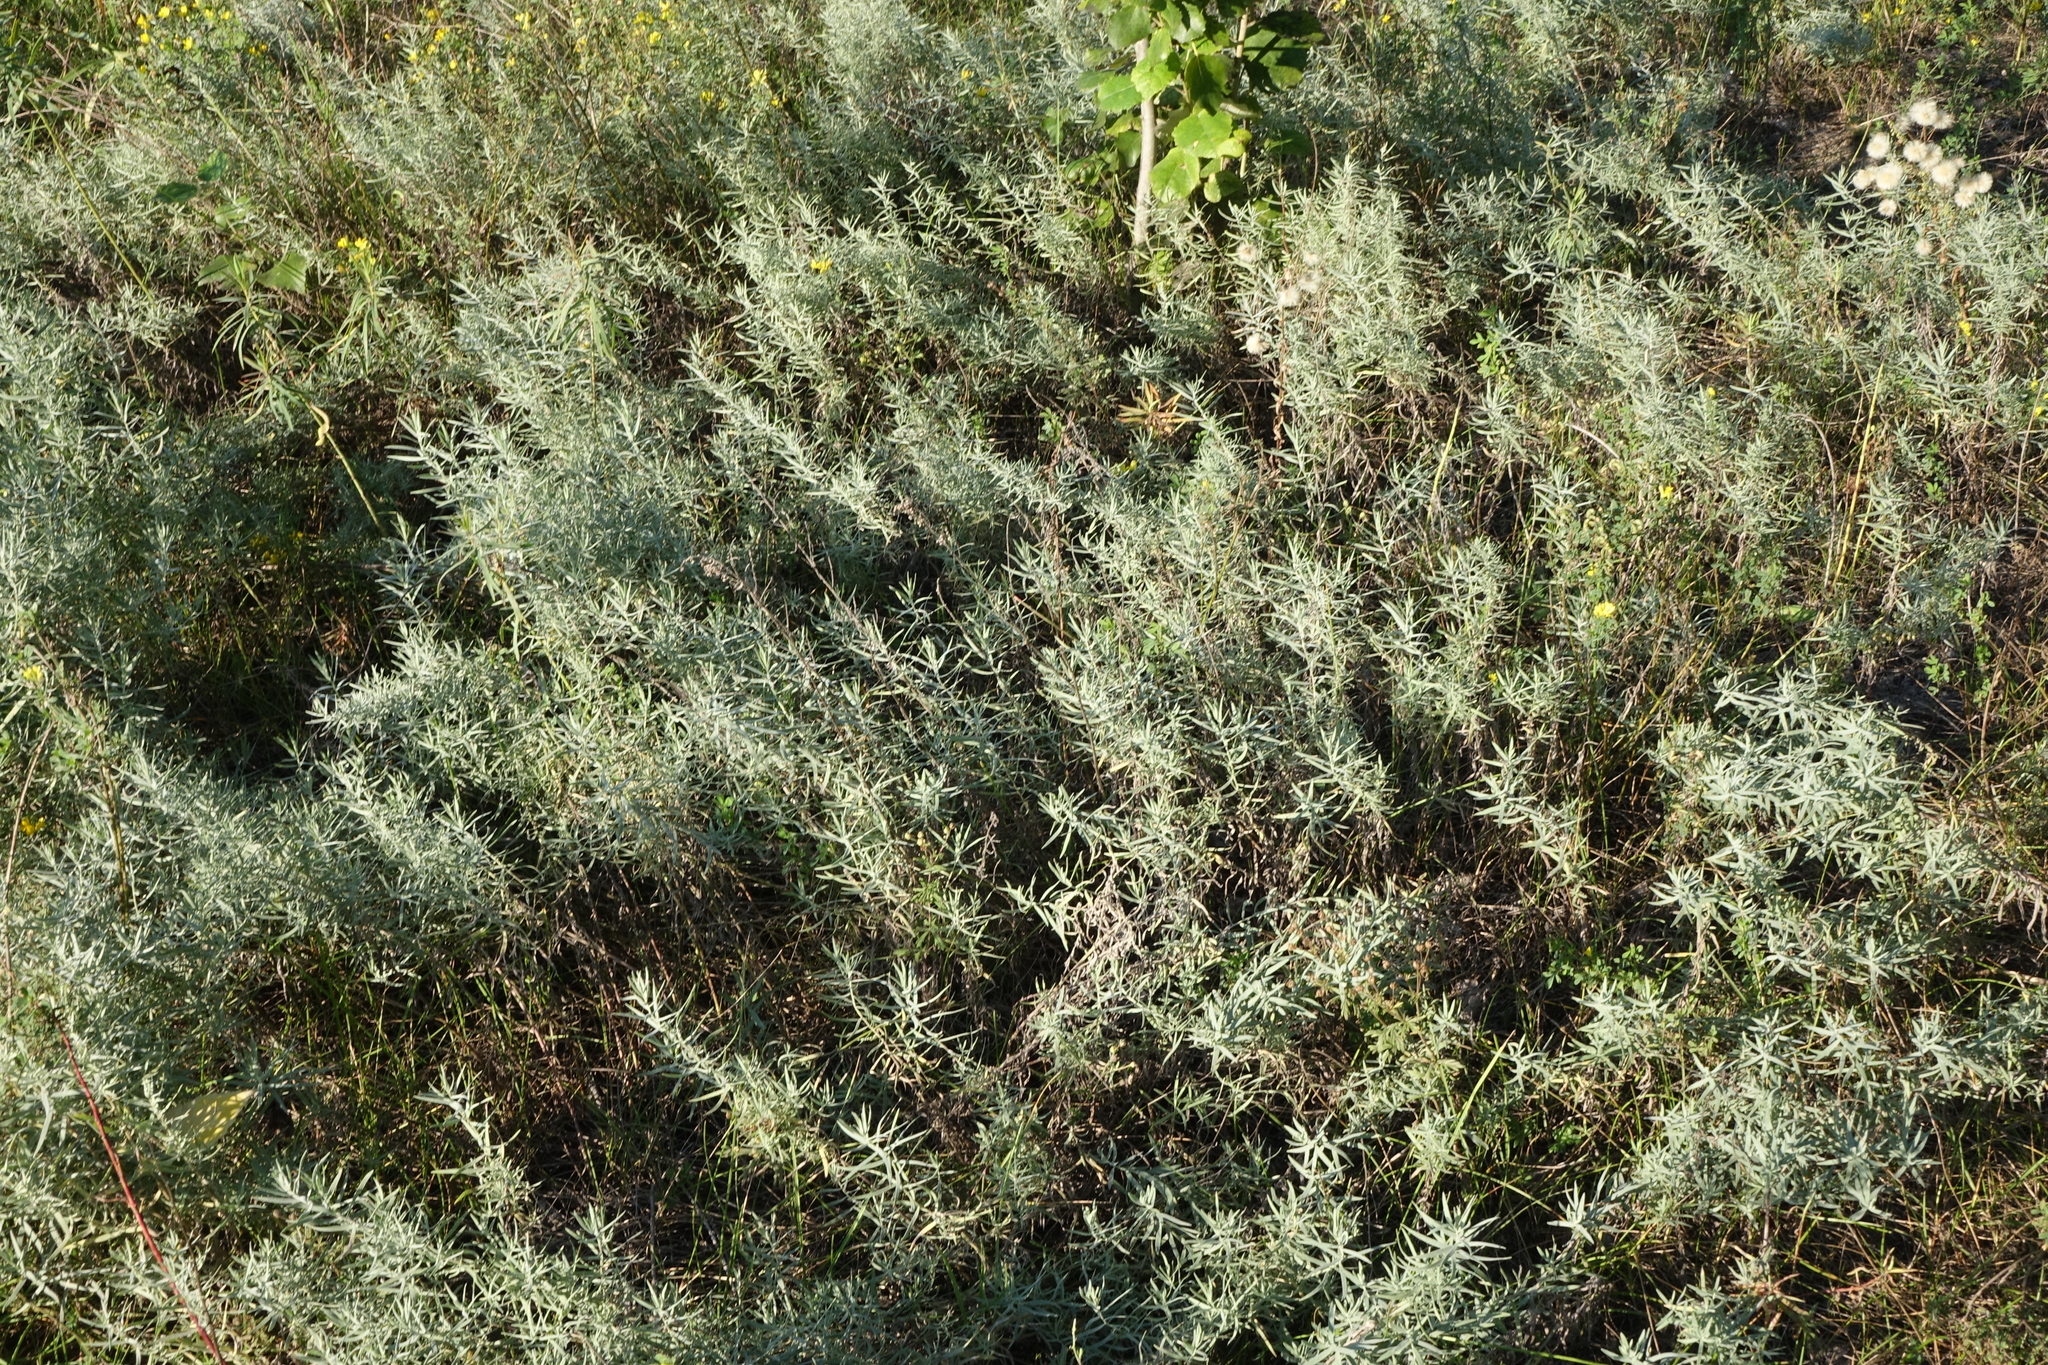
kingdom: Plantae
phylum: Tracheophyta
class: Magnoliopsida
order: Asterales
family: Asteraceae
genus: Artemisia
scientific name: Artemisia glauca
